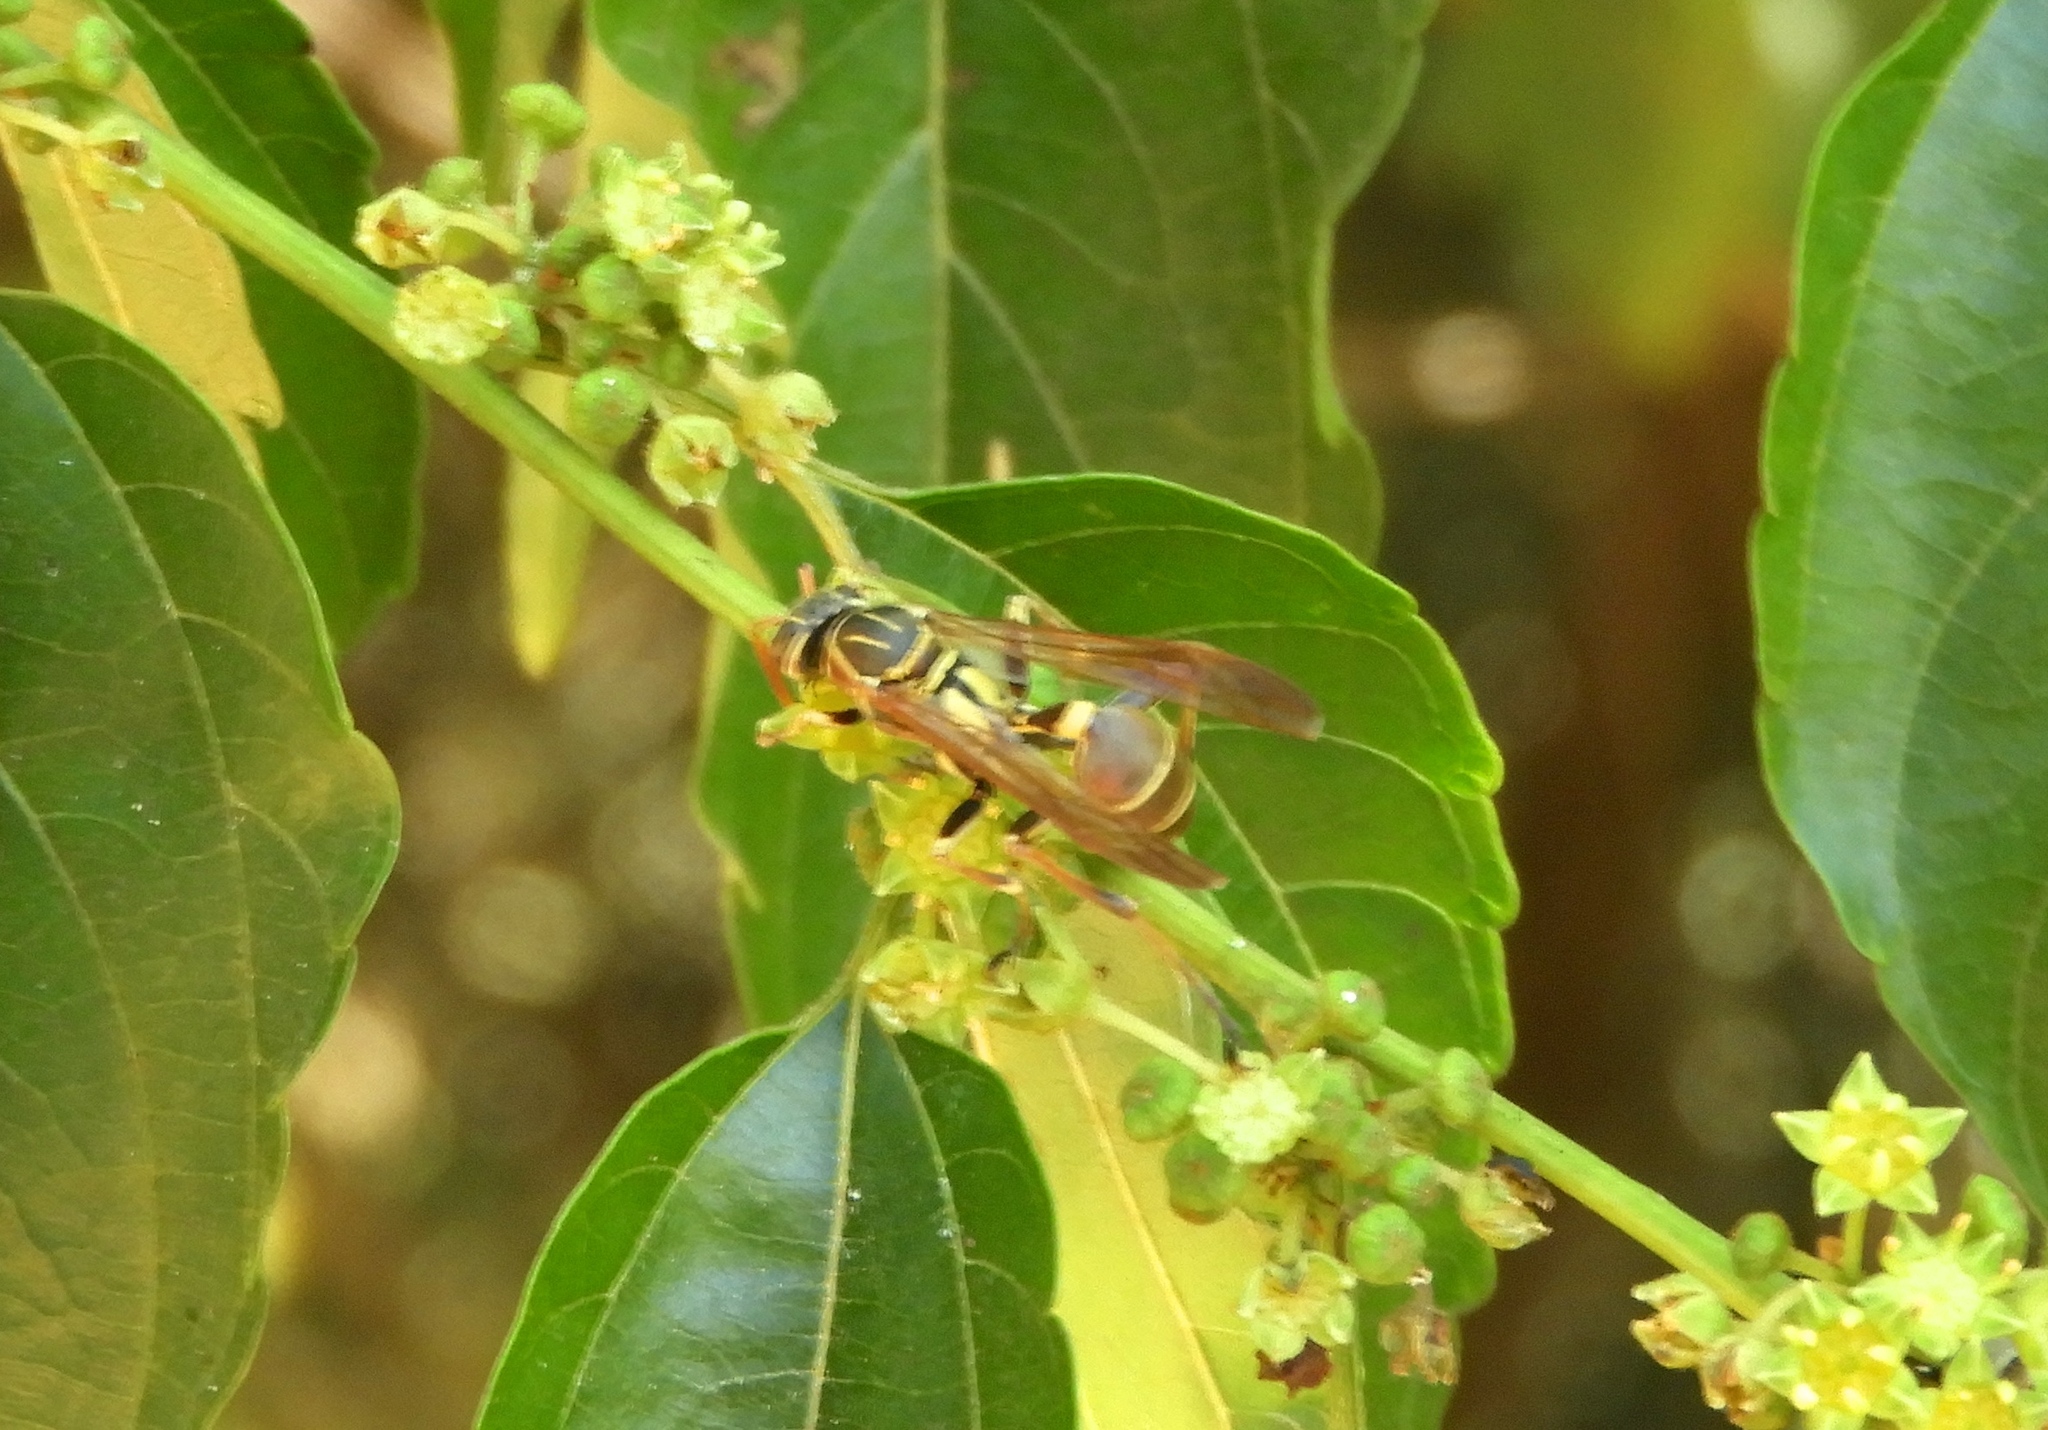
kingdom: Animalia
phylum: Arthropoda
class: Insecta
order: Hymenoptera
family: Vespidae
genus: Mischocyttarus
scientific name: Mischocyttarus mexicanus
